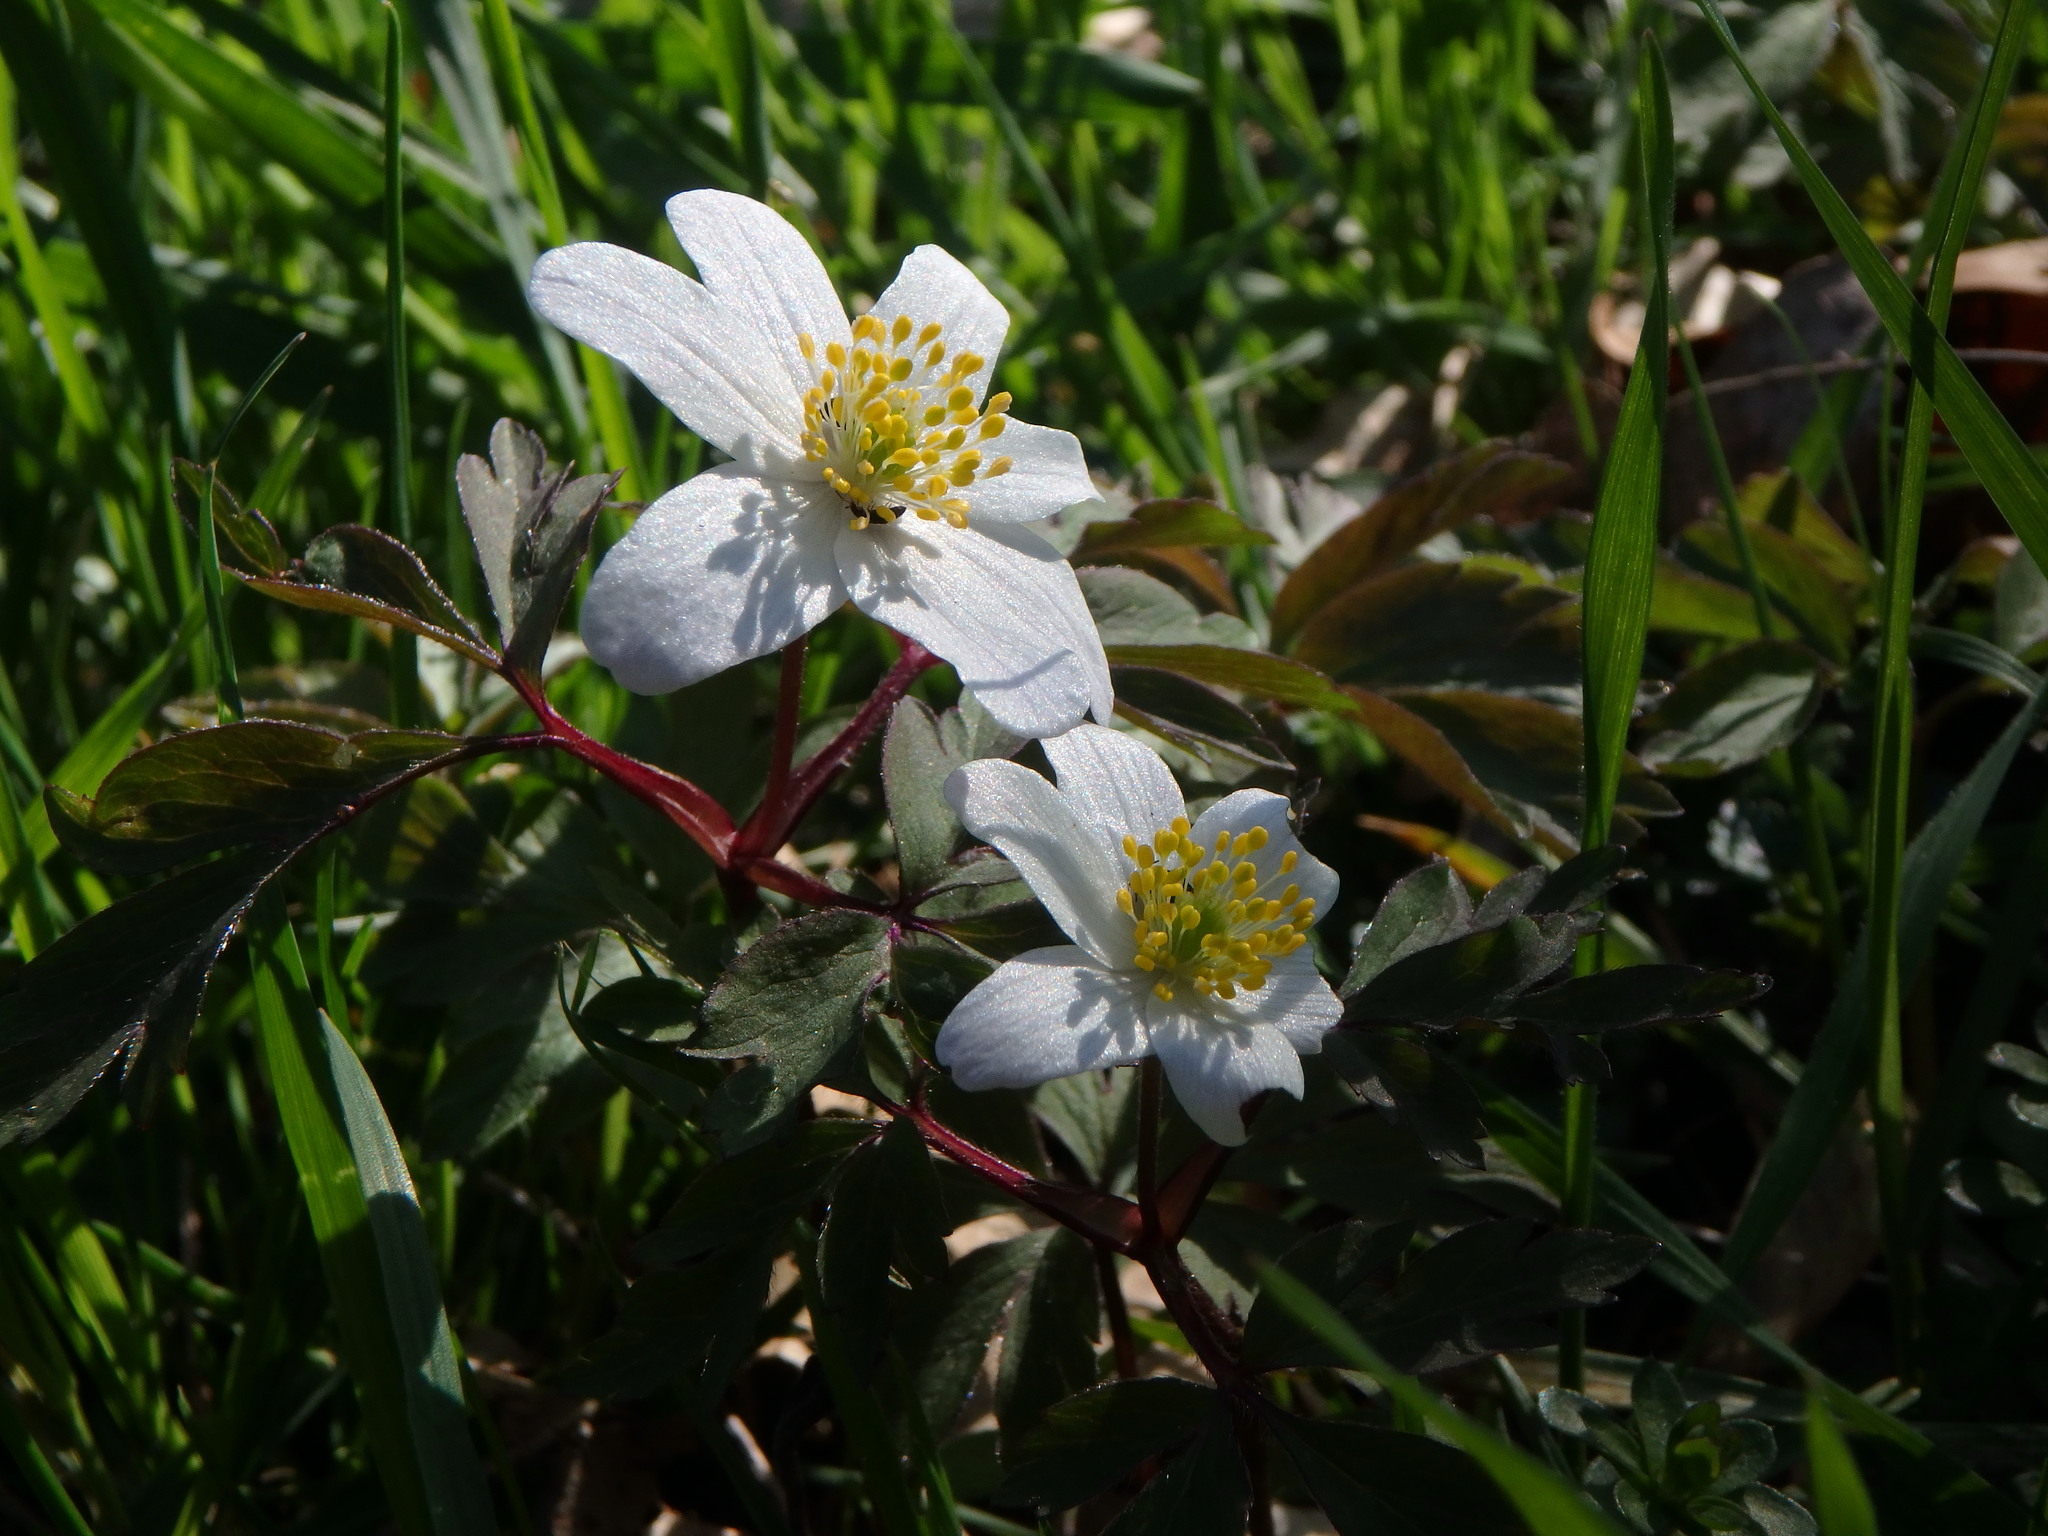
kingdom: Plantae
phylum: Tracheophyta
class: Magnoliopsida
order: Ranunculales
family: Ranunculaceae
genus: Anemone
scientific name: Anemone nemorosa
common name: Wood anemone
